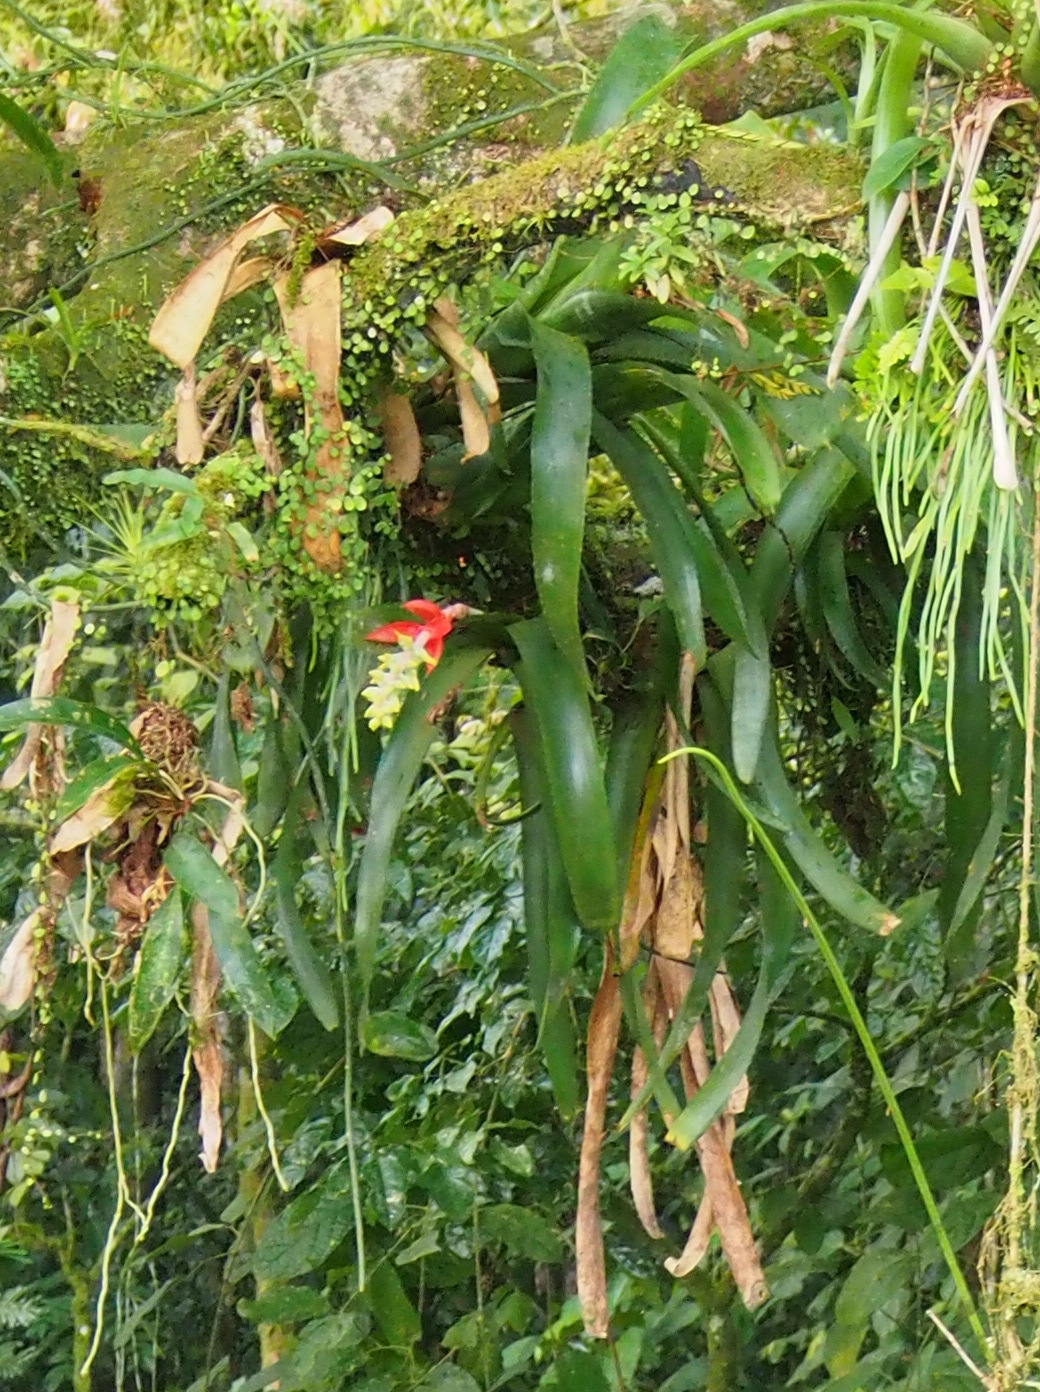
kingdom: Plantae
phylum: Tracheophyta
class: Liliopsida
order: Poales
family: Bromeliaceae
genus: Aechmea
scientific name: Aechmea nudicaulis
